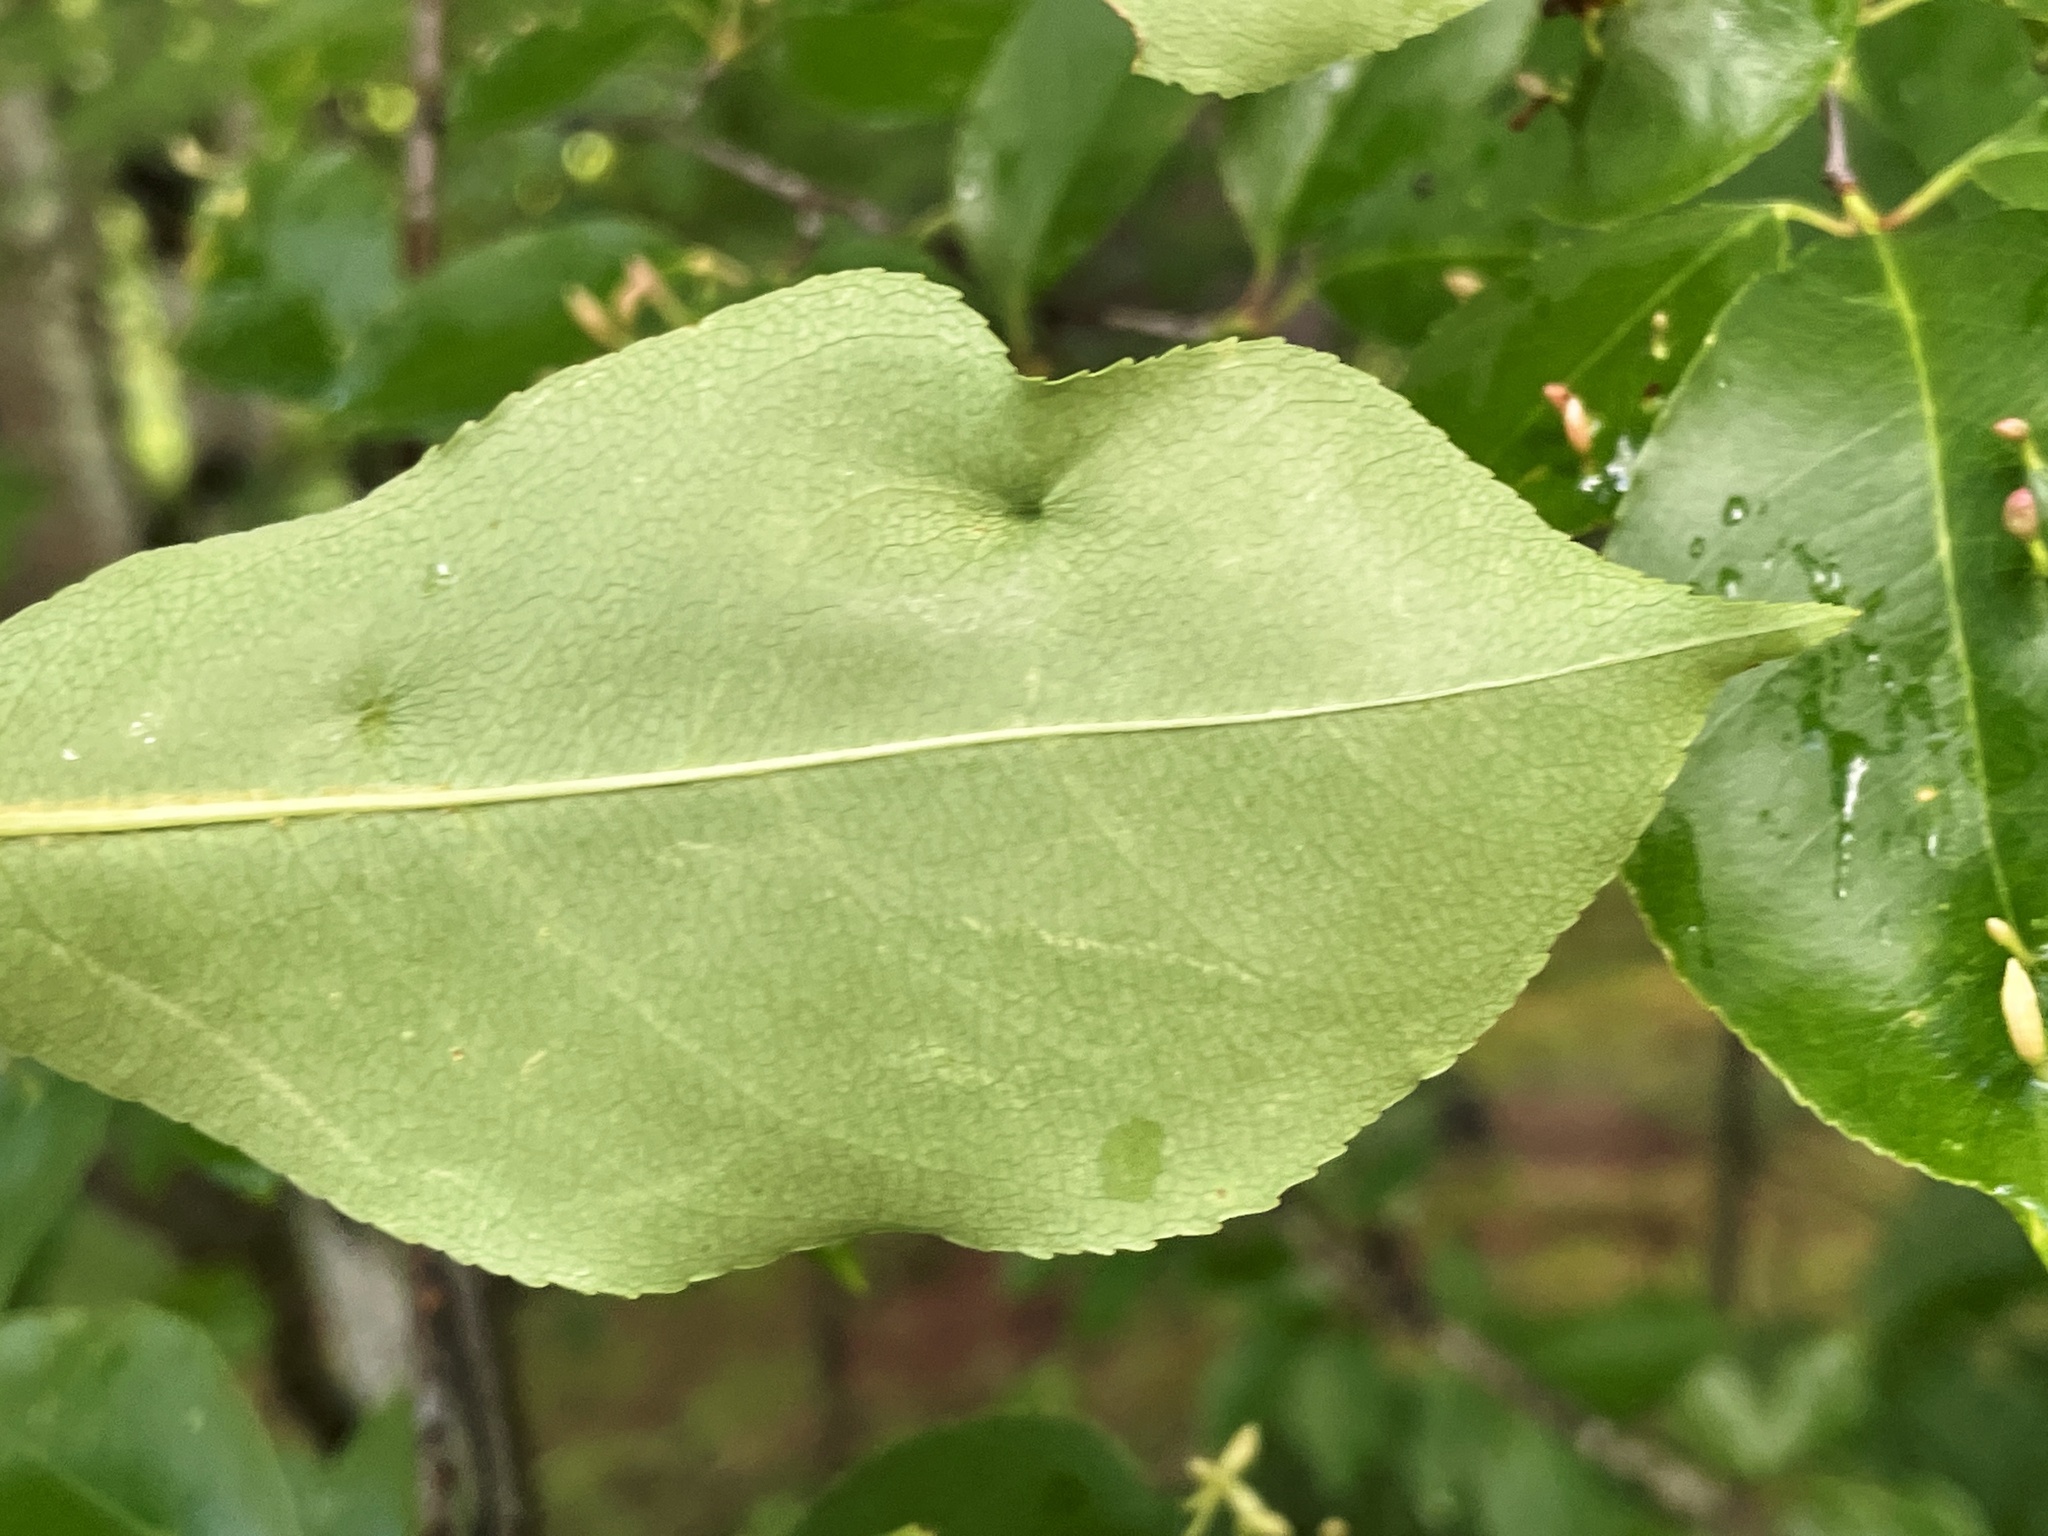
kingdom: Plantae
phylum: Tracheophyta
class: Magnoliopsida
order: Rosales
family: Rosaceae
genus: Prunus
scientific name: Prunus serotina
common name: Black cherry
